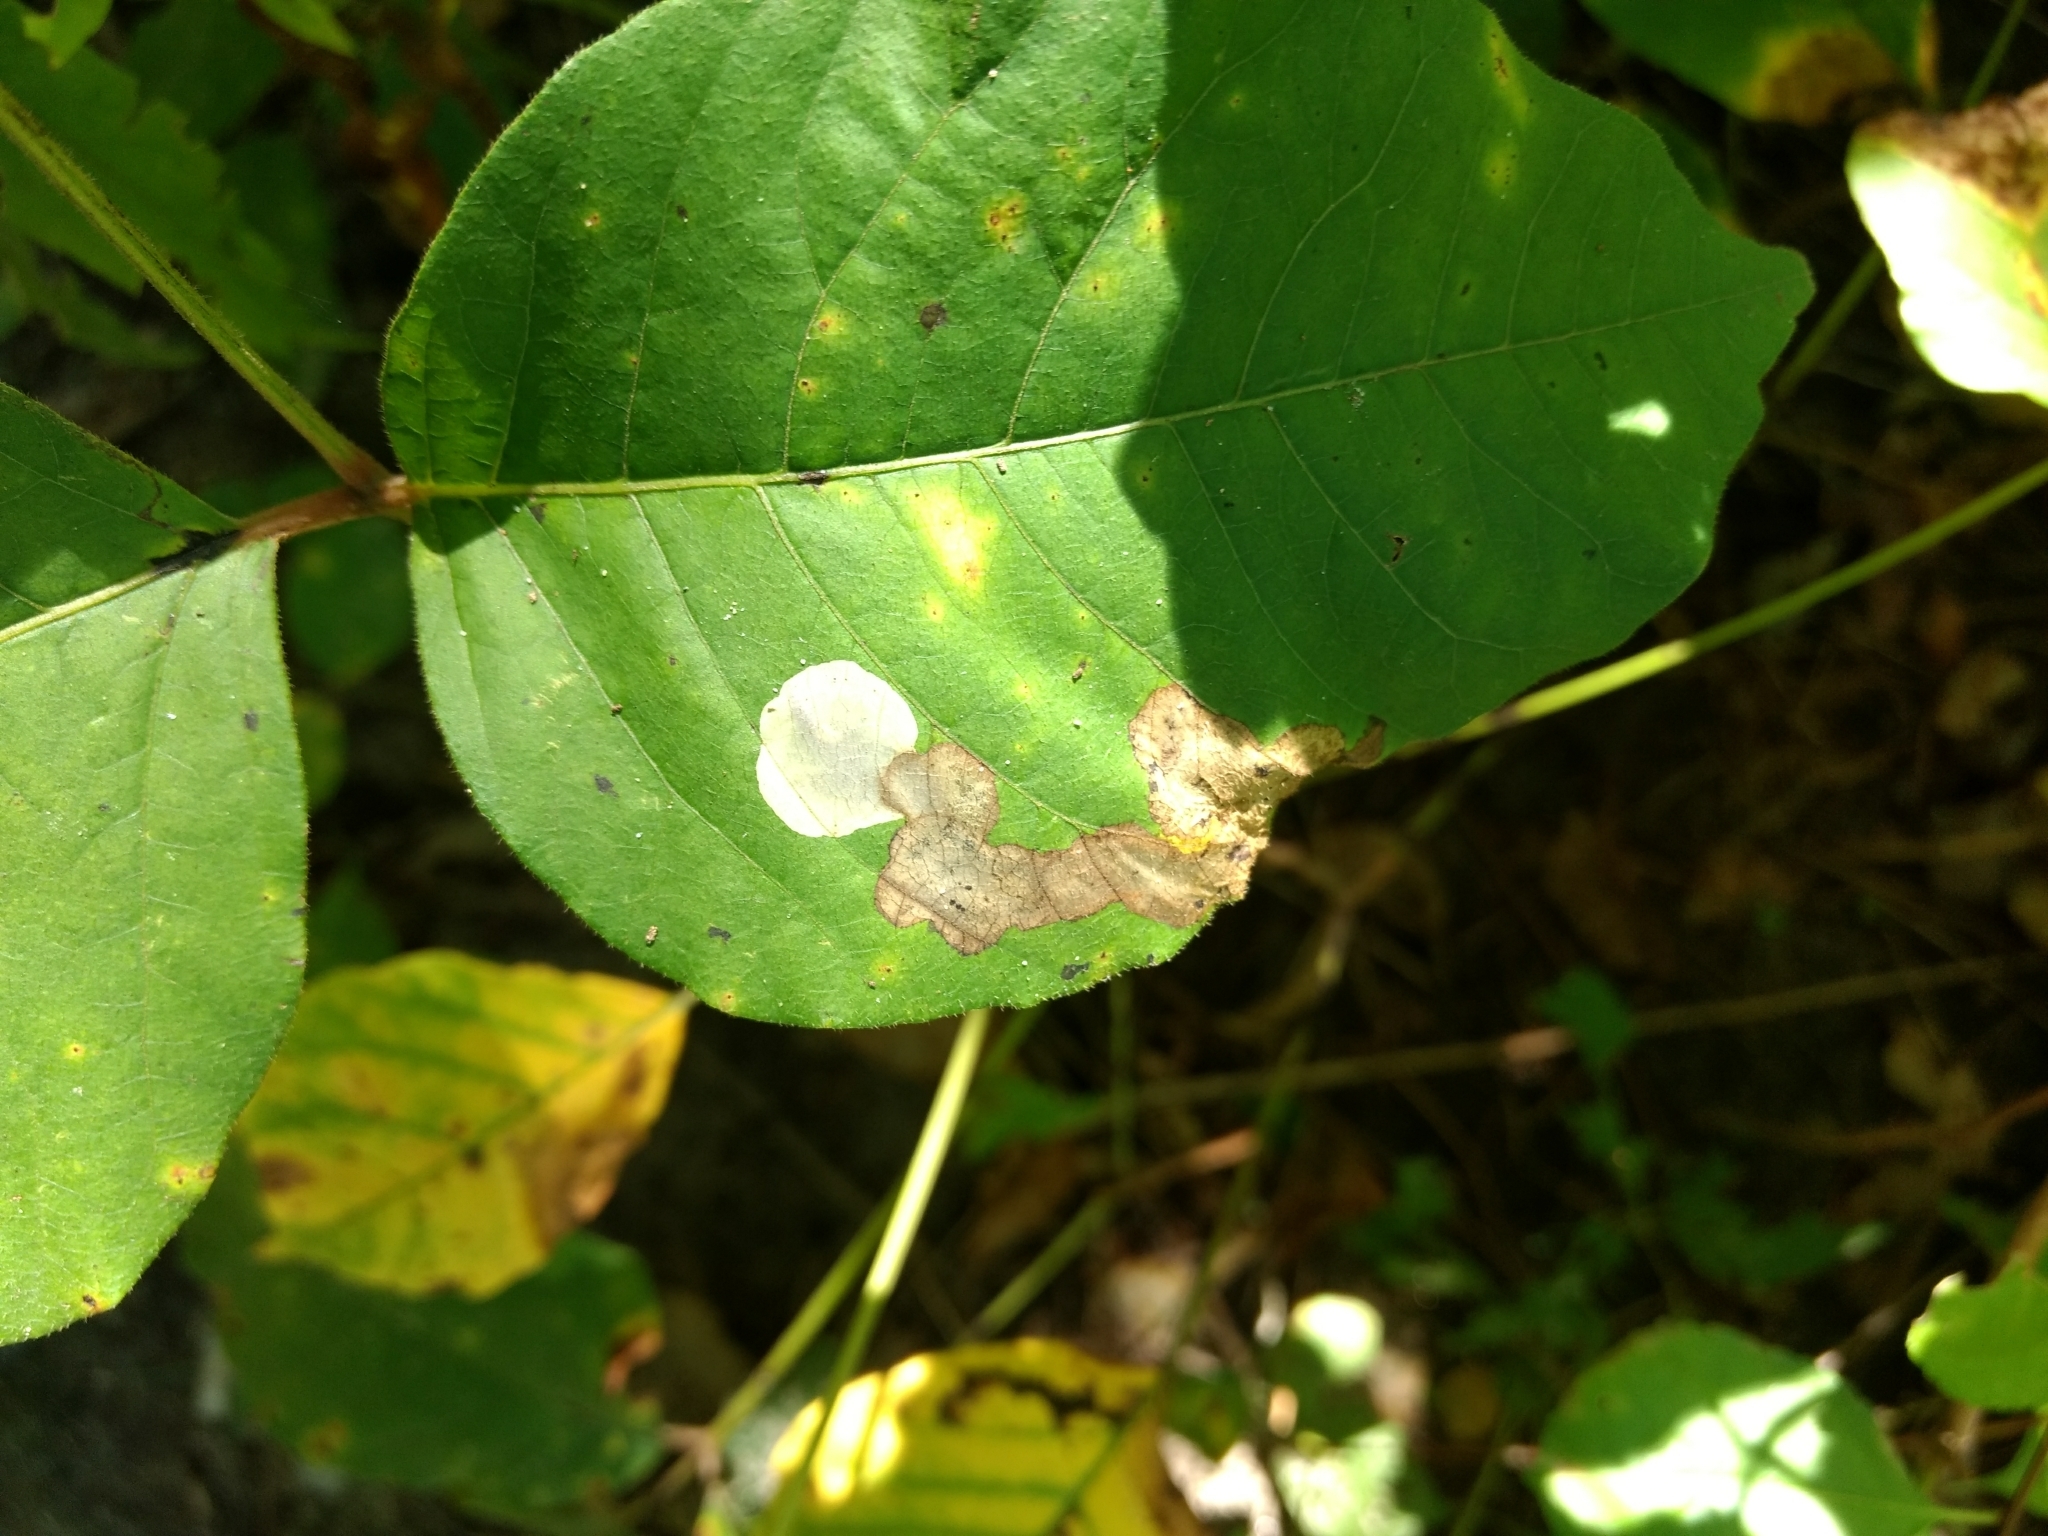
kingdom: Animalia
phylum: Arthropoda
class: Insecta
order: Lepidoptera
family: Gracillariidae
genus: Cameraria
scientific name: Cameraria guttifinitella
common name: Poison ivy leaf-miner moth
